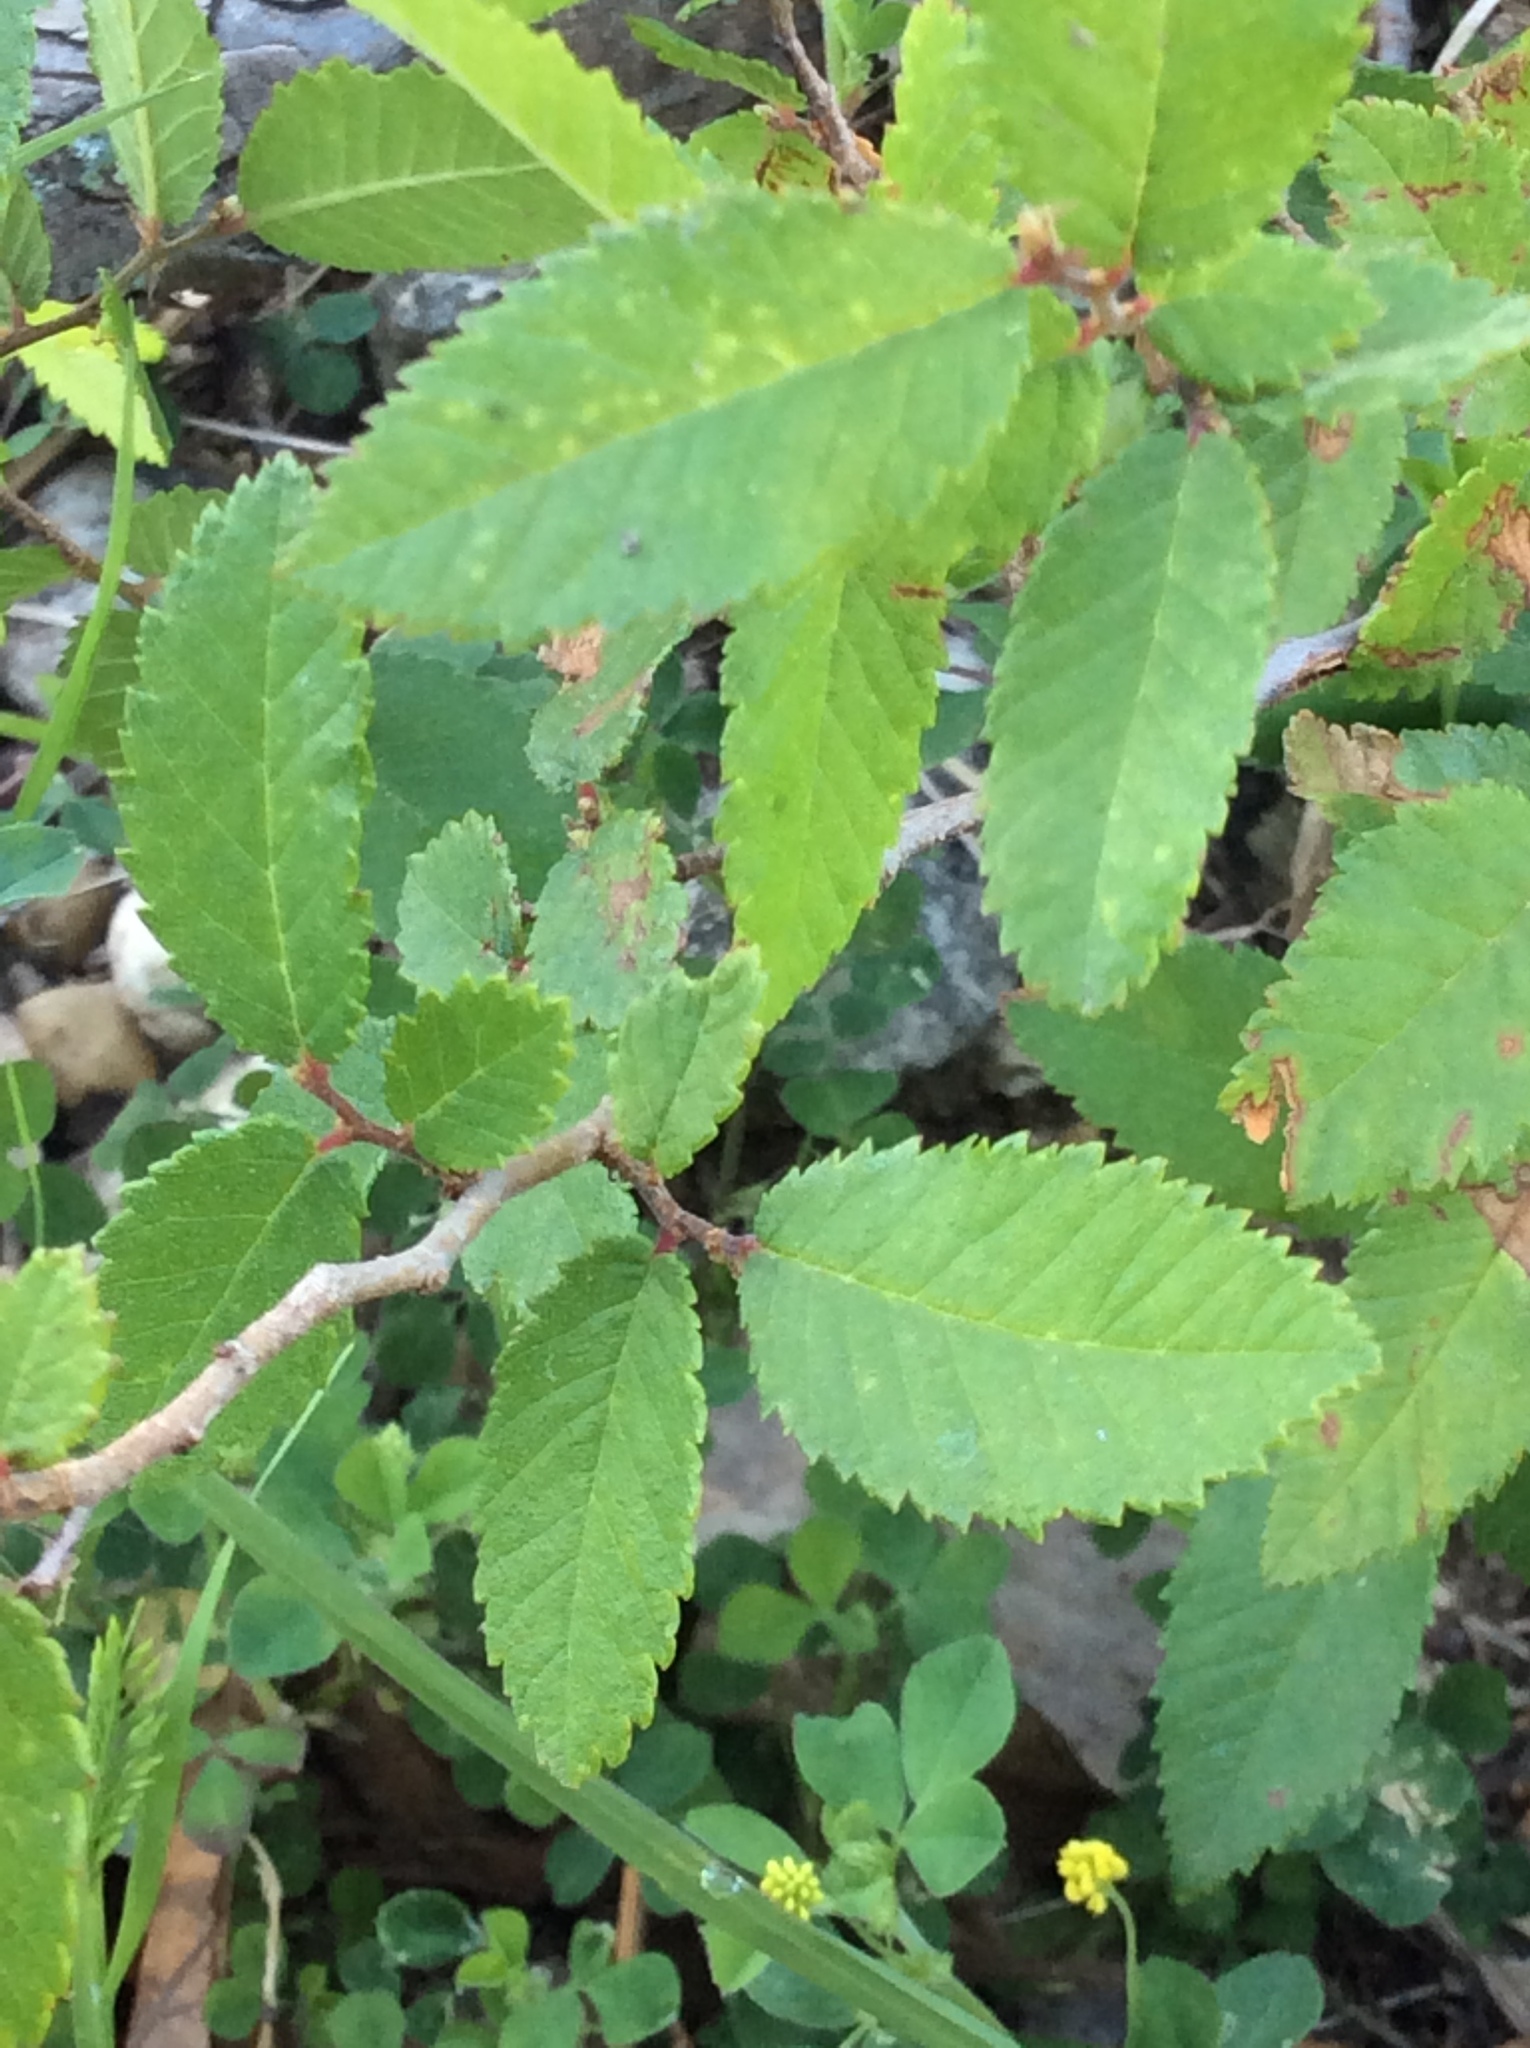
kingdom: Plantae
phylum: Tracheophyta
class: Magnoliopsida
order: Rosales
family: Ulmaceae
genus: Ulmus
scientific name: Ulmus crassifolia
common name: Basket elm
